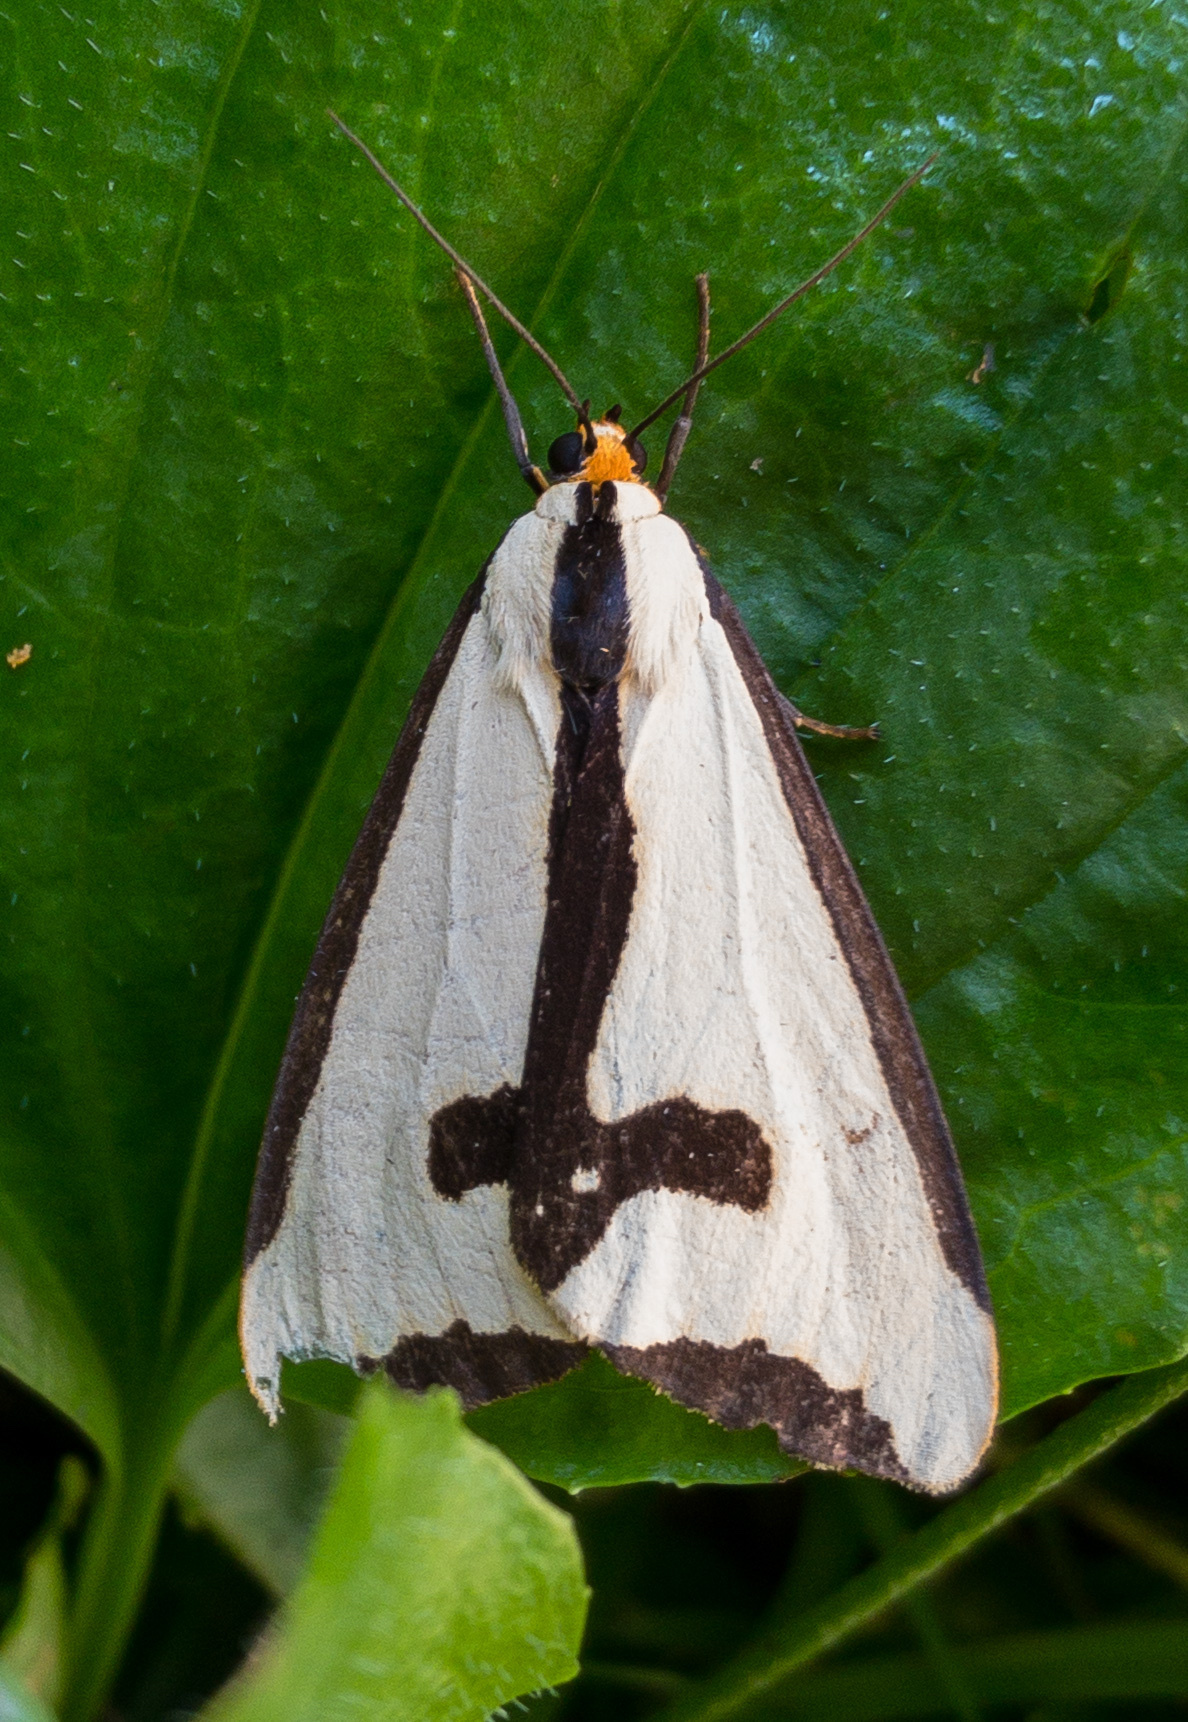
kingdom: Animalia
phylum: Arthropoda
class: Insecta
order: Lepidoptera
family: Erebidae
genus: Haploa
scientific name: Haploa clymene
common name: Clymene moth
